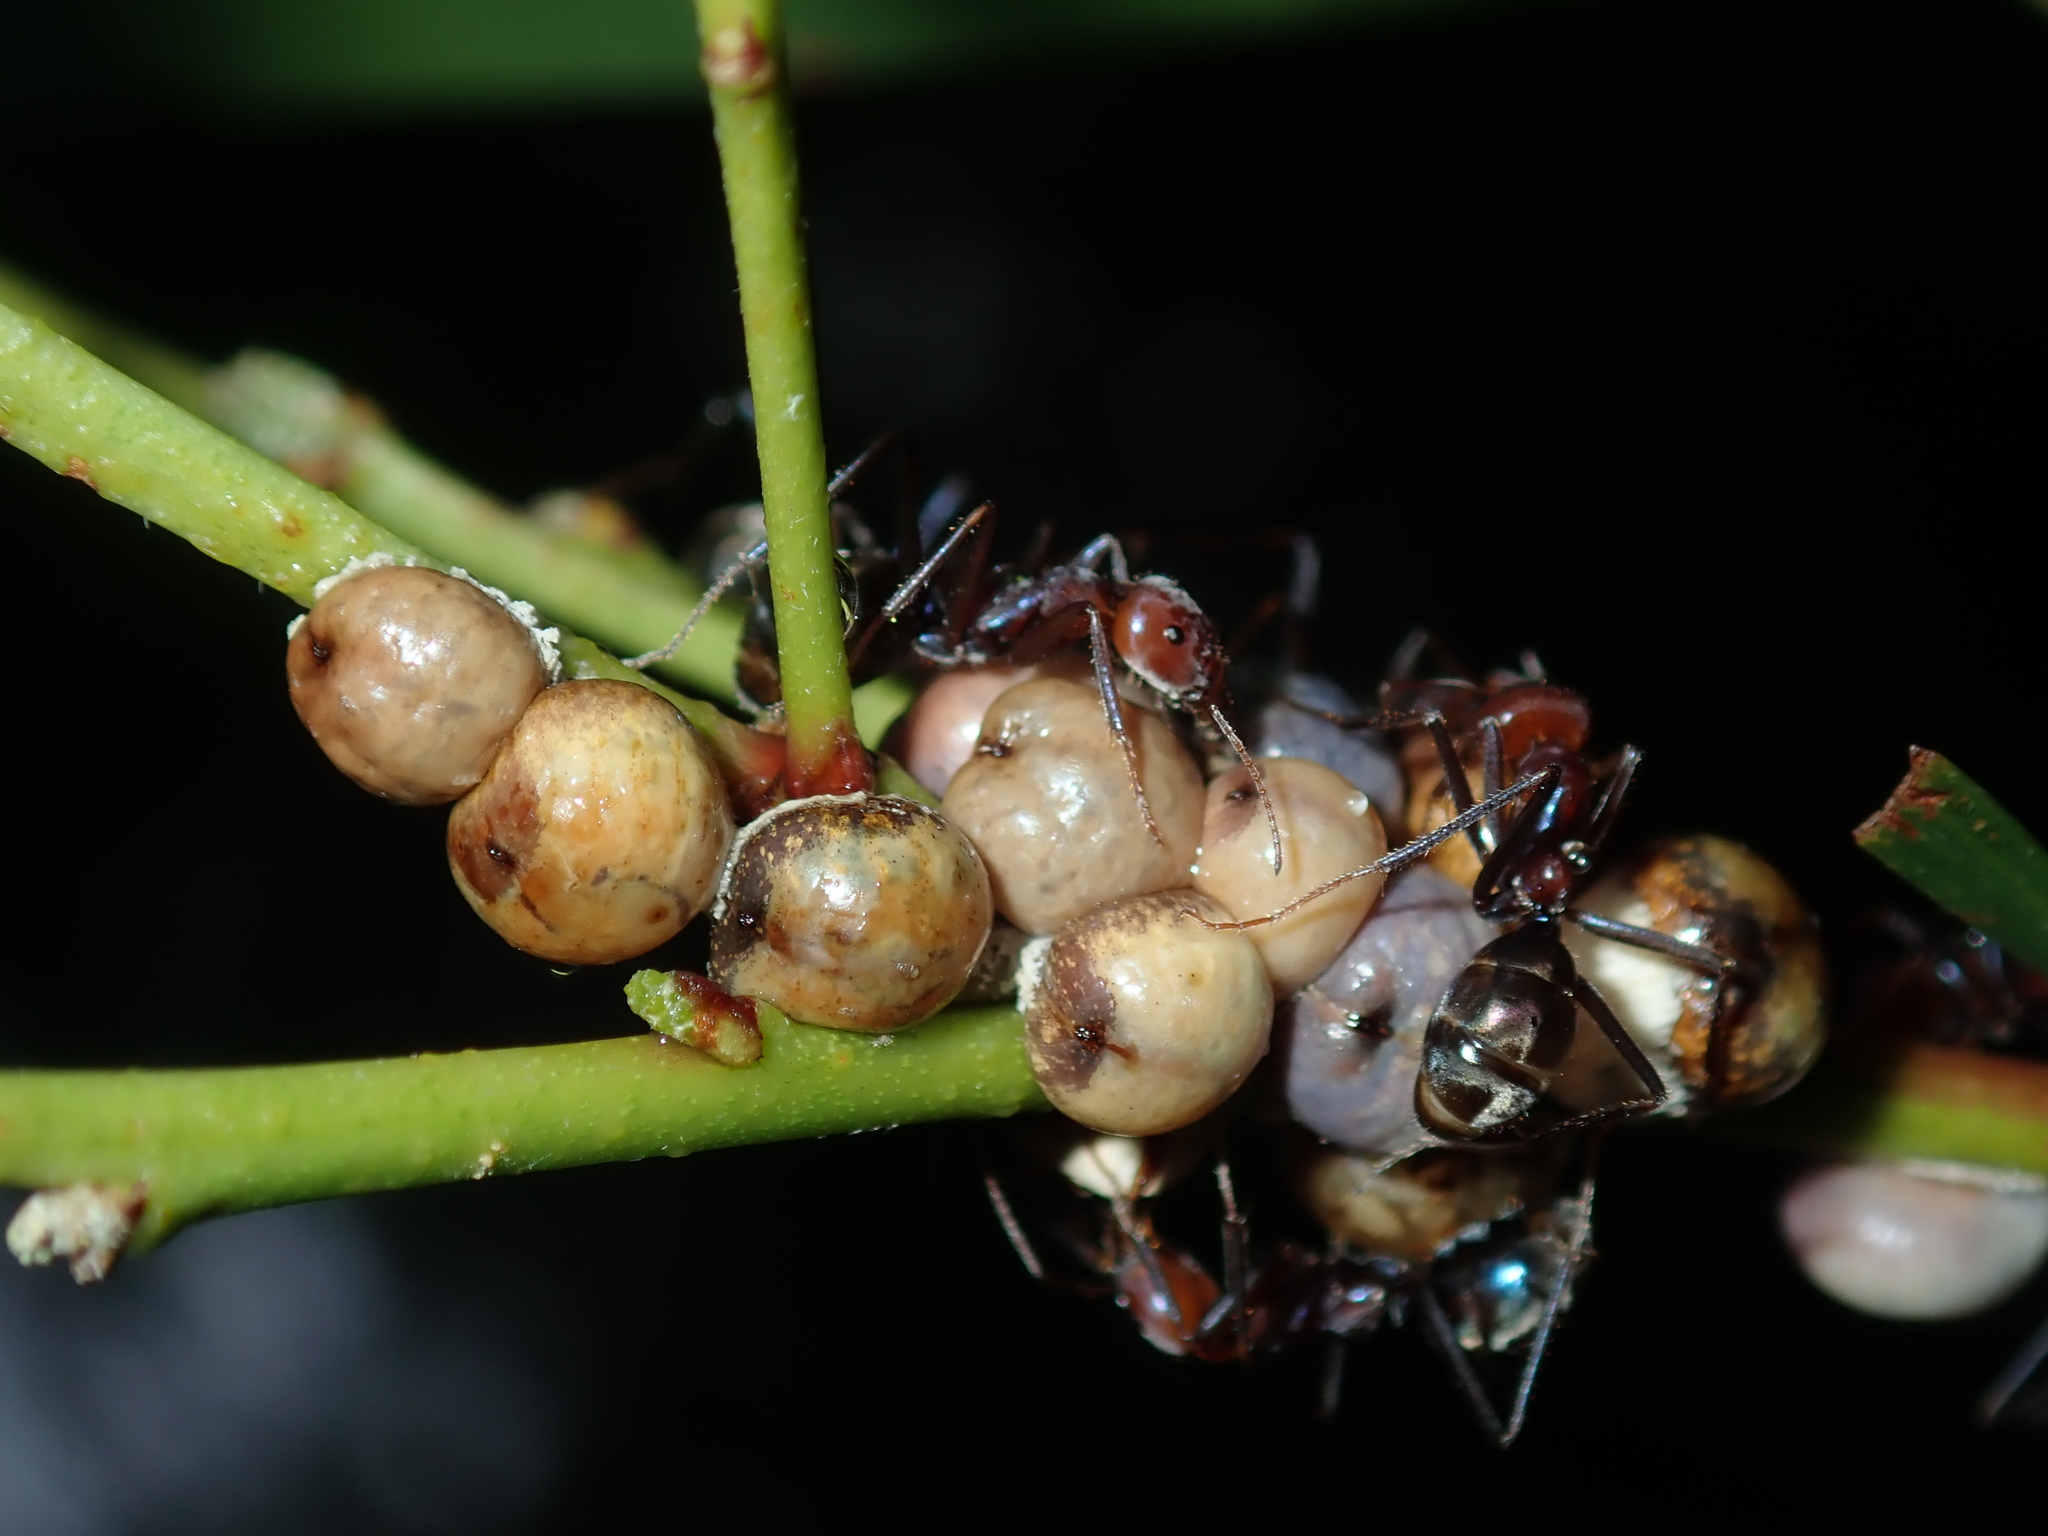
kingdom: Animalia
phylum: Arthropoda
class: Insecta
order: Hemiptera
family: Coccidae
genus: Cryptes
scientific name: Cryptes baccatus
